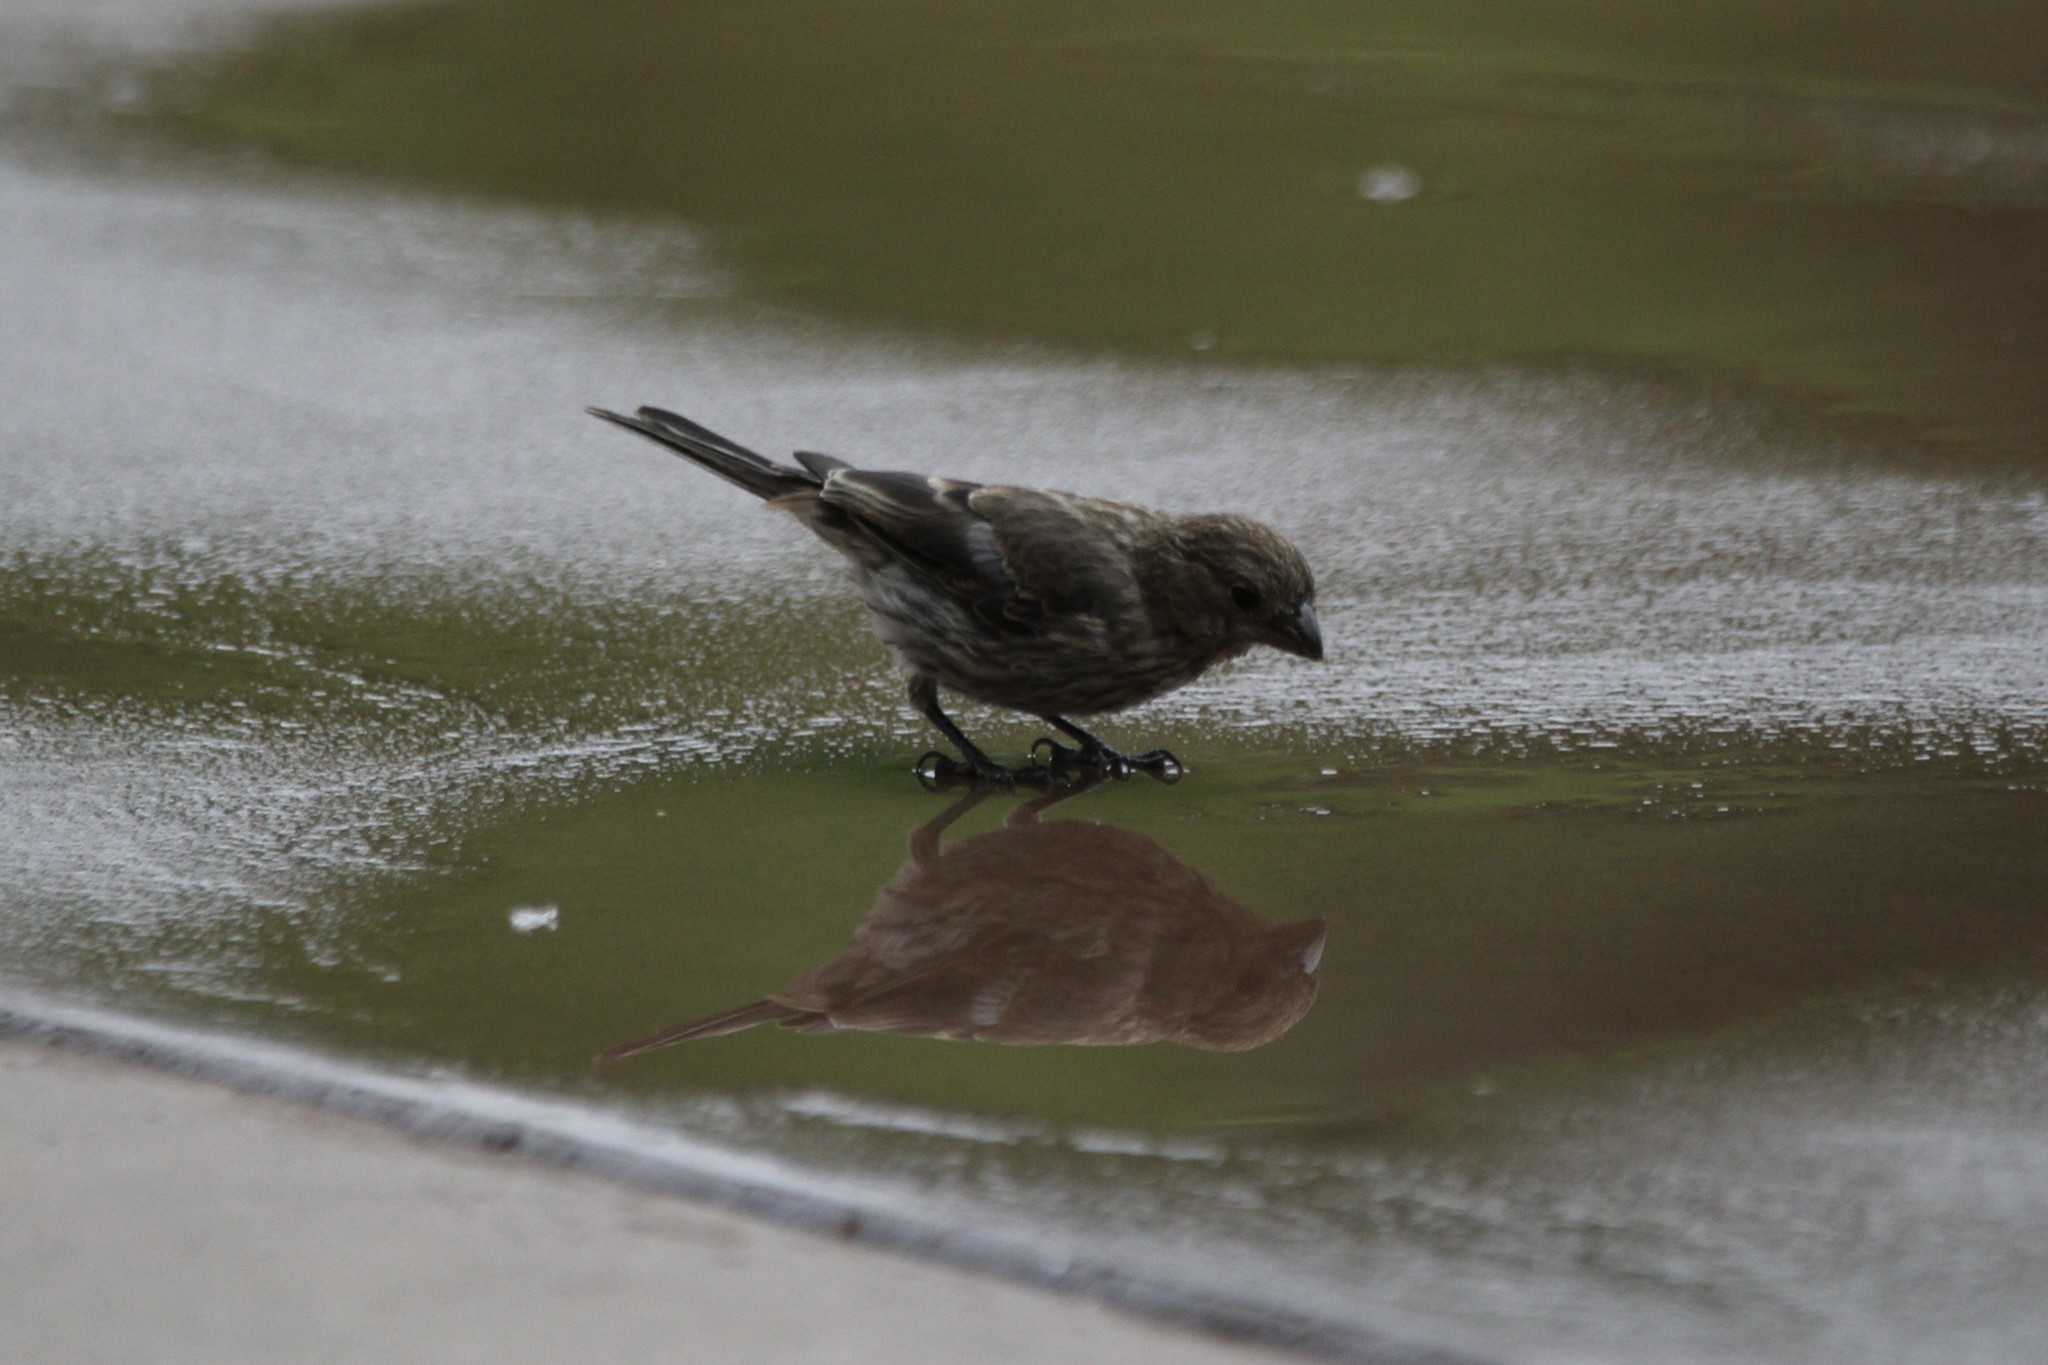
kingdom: Animalia
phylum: Chordata
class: Aves
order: Passeriformes
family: Fringillidae
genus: Haemorhous
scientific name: Haemorhous mexicanus
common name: House finch
